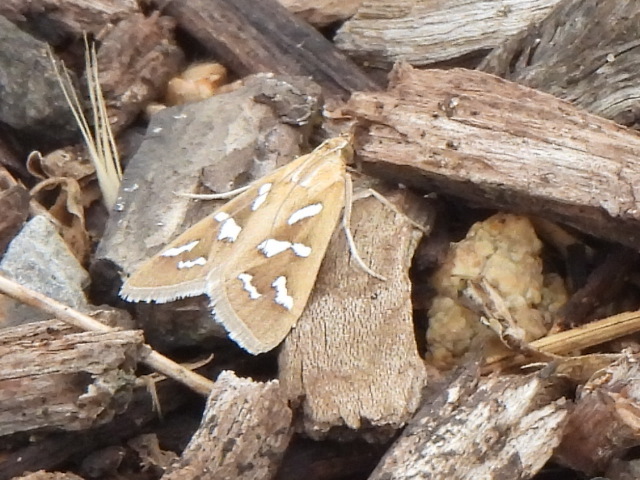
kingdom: Animalia
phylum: Arthropoda
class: Insecta
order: Lepidoptera
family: Crambidae
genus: Diastictis
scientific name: Diastictis fracturalis
